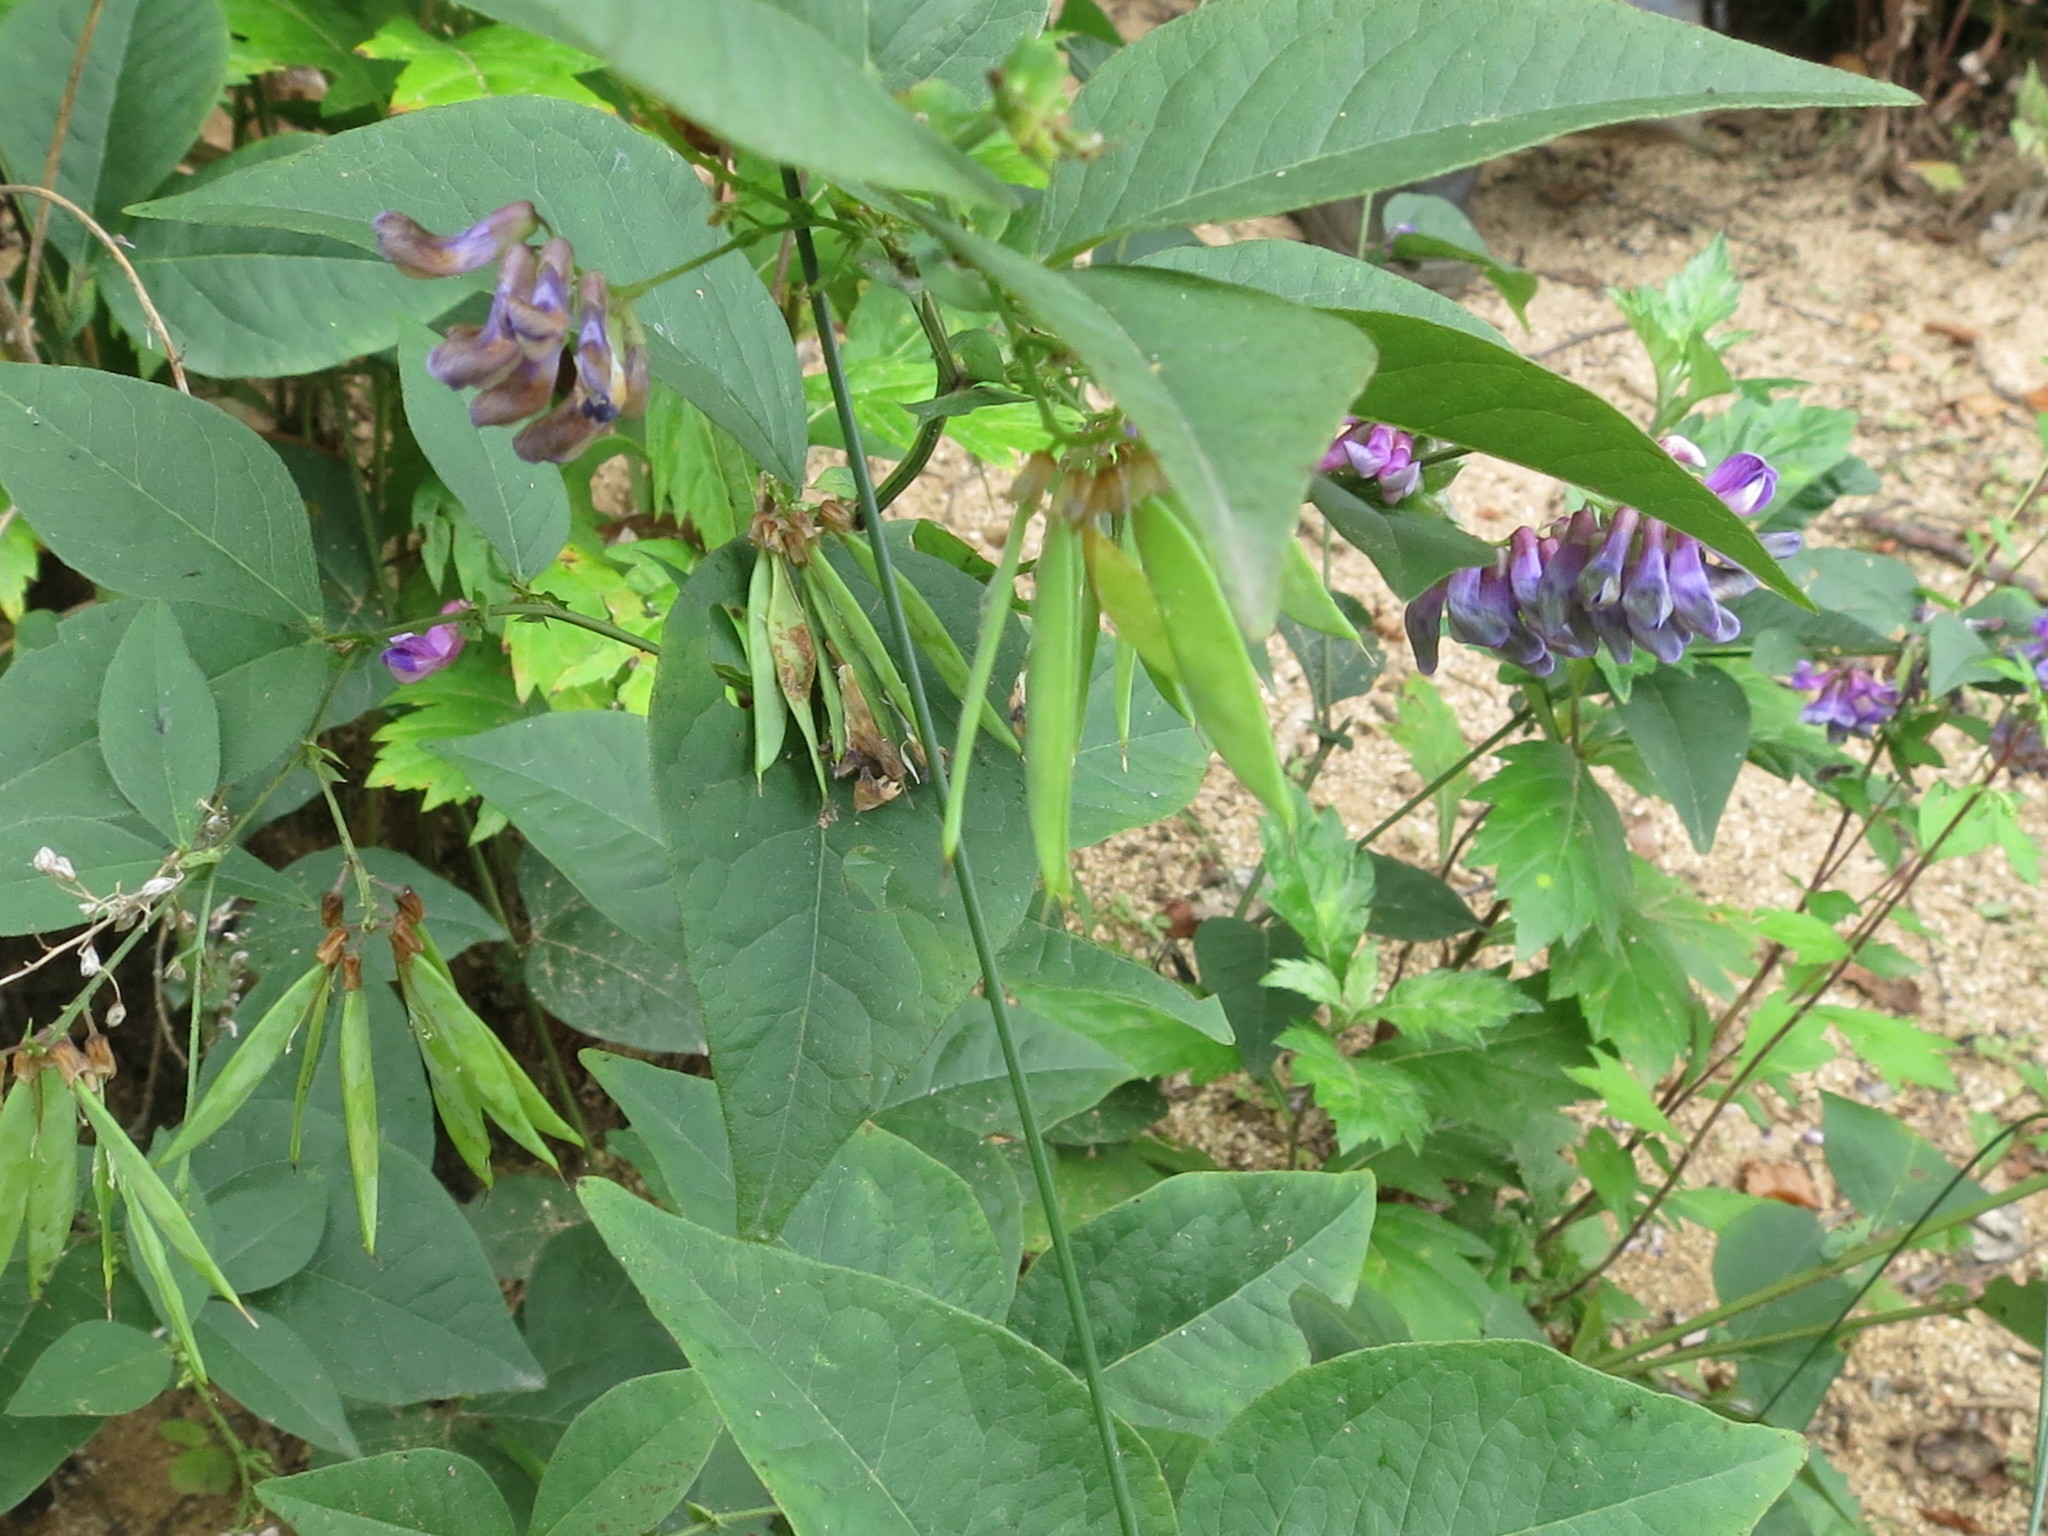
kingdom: Plantae
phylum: Tracheophyta
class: Magnoliopsida
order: Fabales
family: Fabaceae
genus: Vicia
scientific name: Vicia unijuga
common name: Two-leaf vetch
